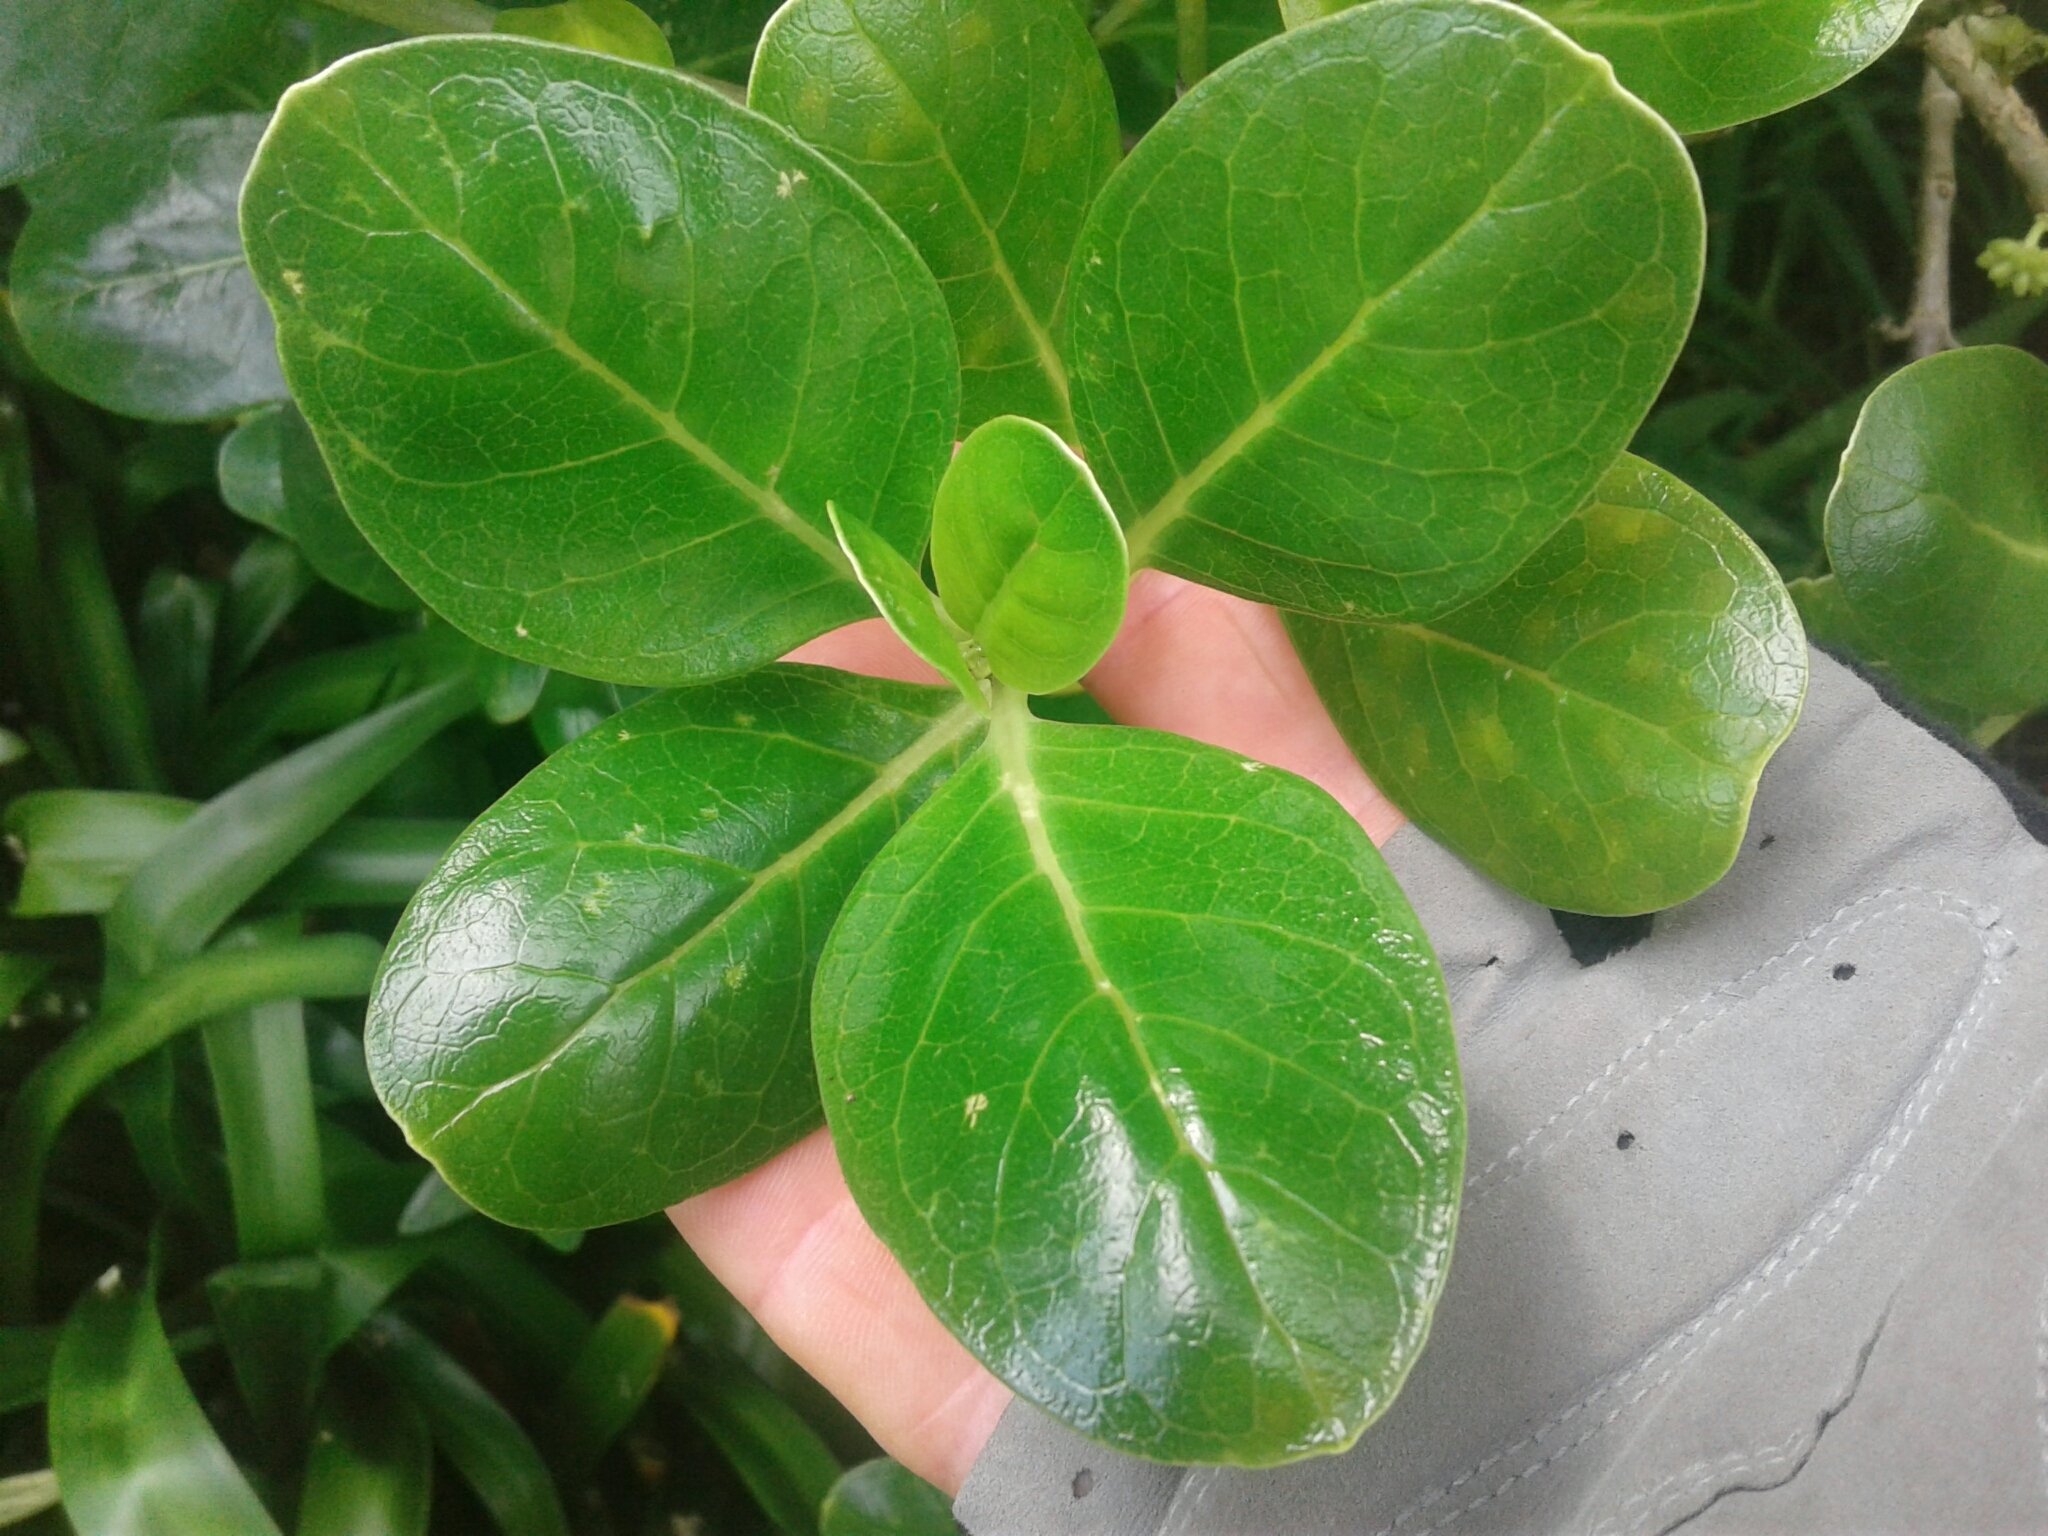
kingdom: Plantae
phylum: Tracheophyta
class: Magnoliopsida
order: Gentianales
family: Rubiaceae
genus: Coprosma
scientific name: Coprosma repens
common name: Tree bedstraw
